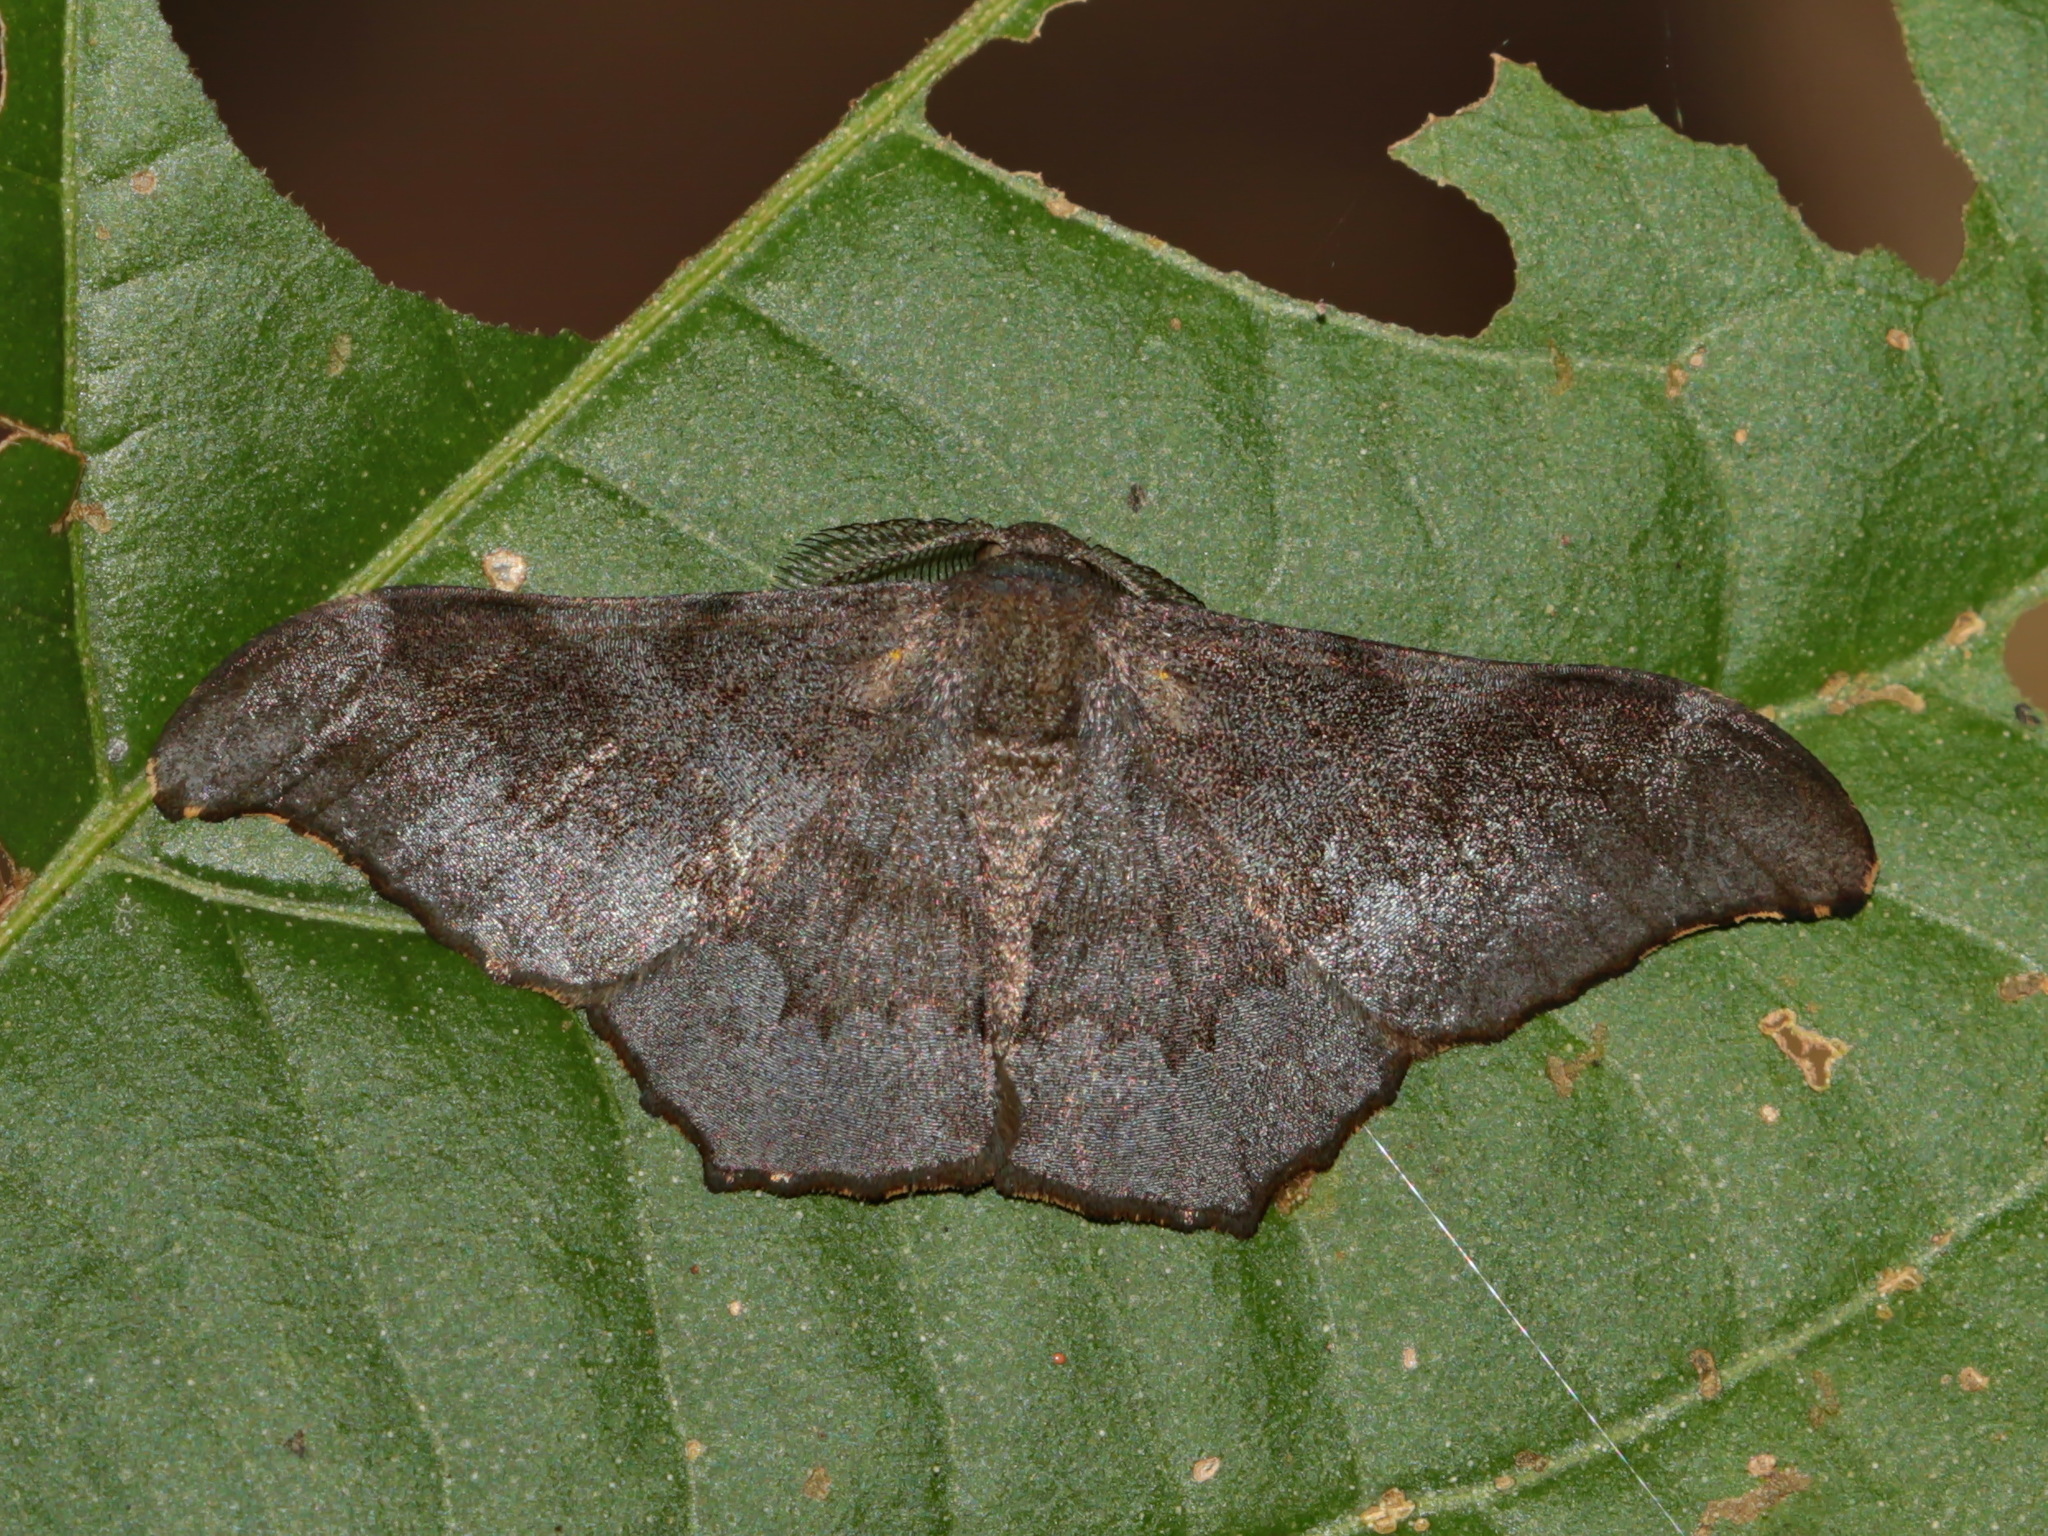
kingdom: Animalia
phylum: Arthropoda
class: Insecta
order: Lepidoptera
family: Geometridae
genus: Hyposidra
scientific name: Hyposidra talaca
